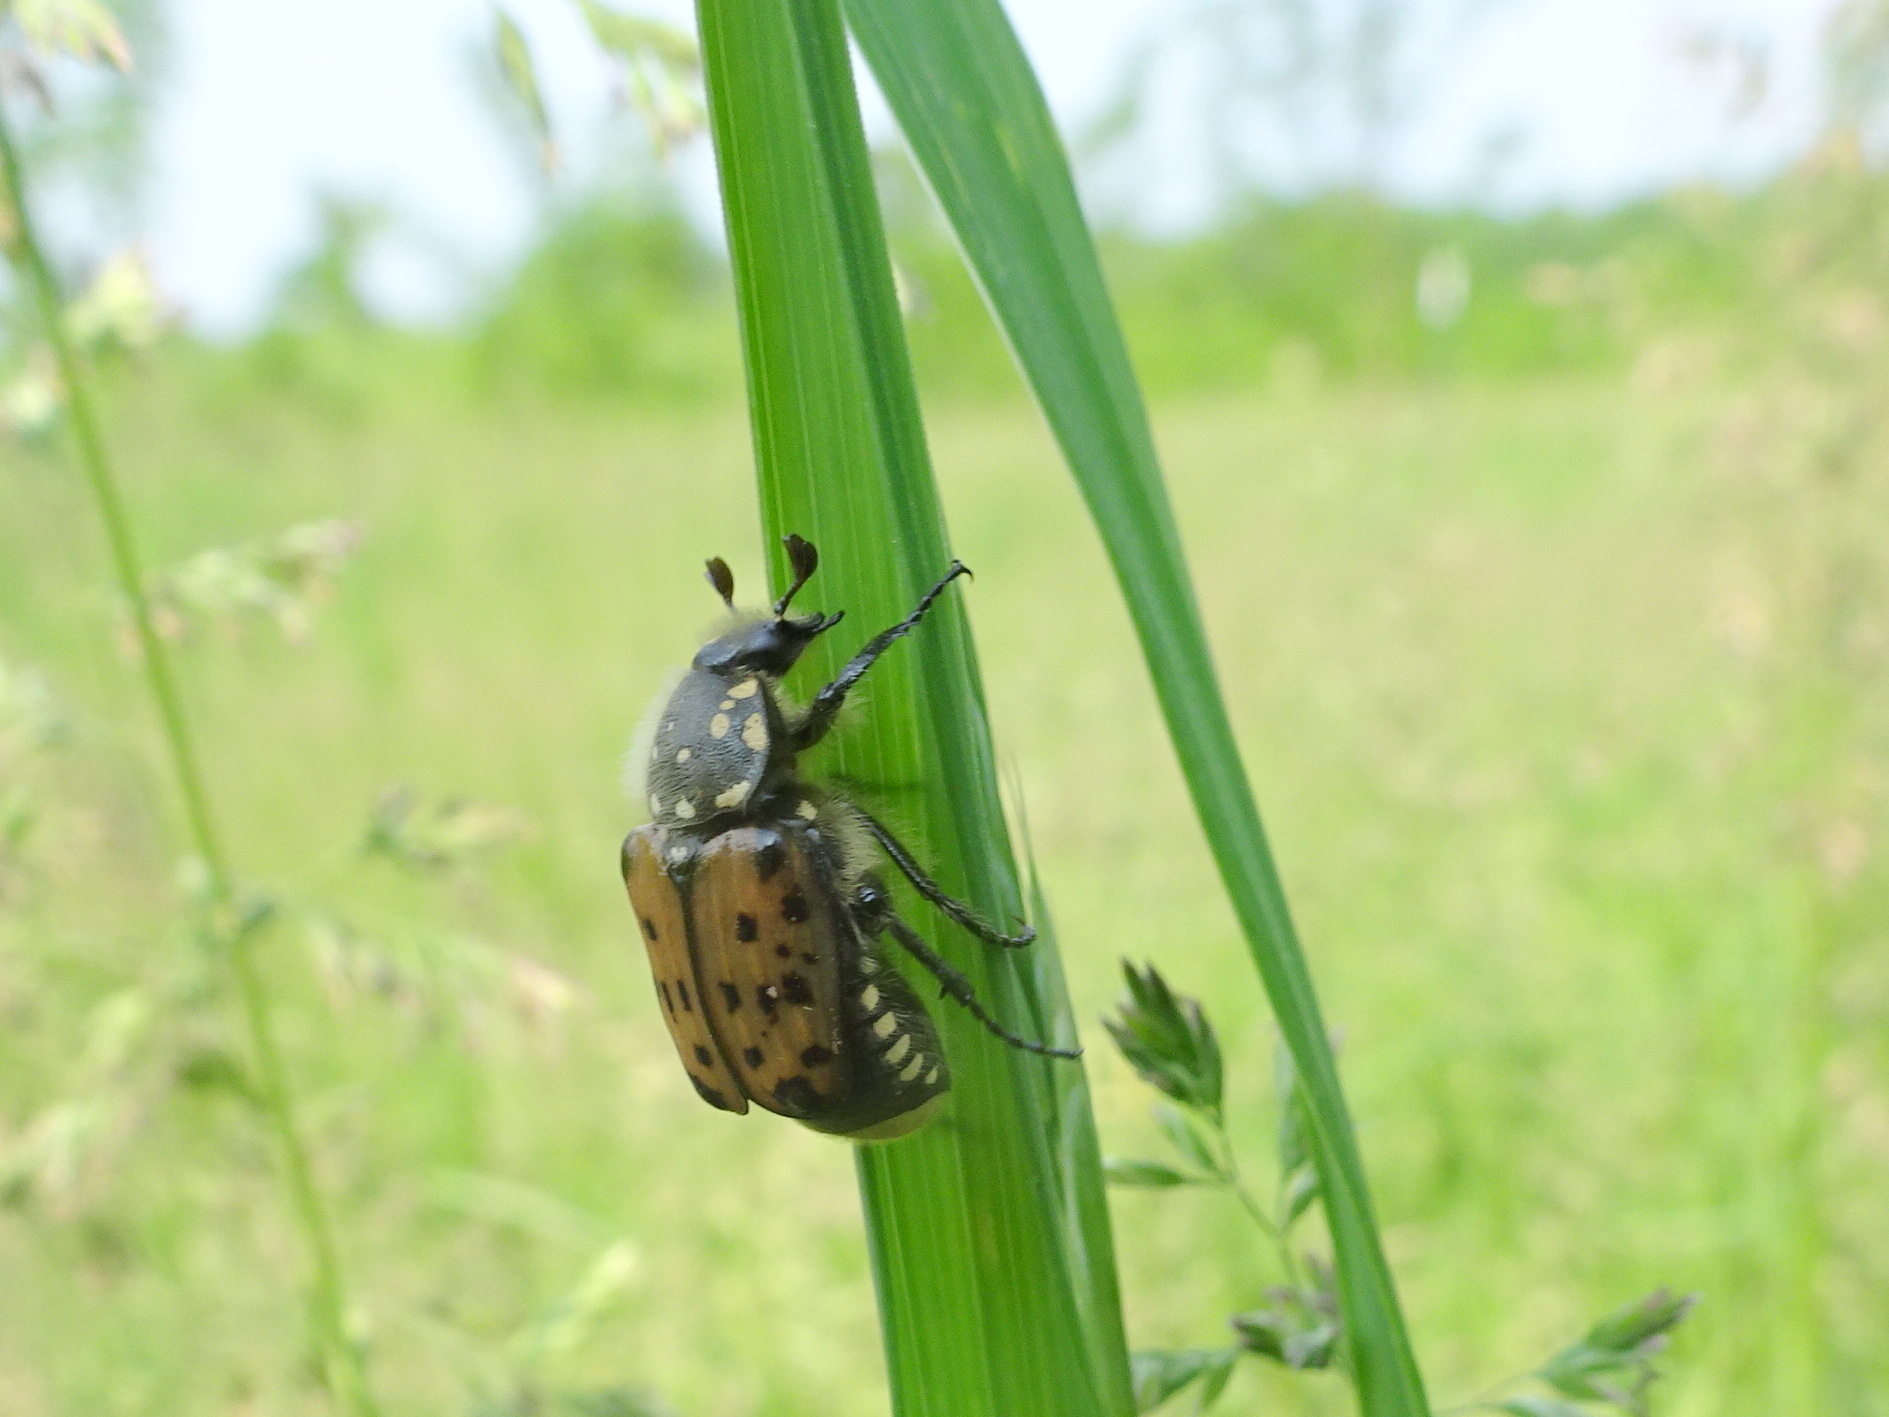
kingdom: Animalia
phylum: Arthropoda
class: Insecta
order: Coleoptera
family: Scarabaeidae
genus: Gnorimella
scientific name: Gnorimella maculosa
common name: Maculate flower beetle
